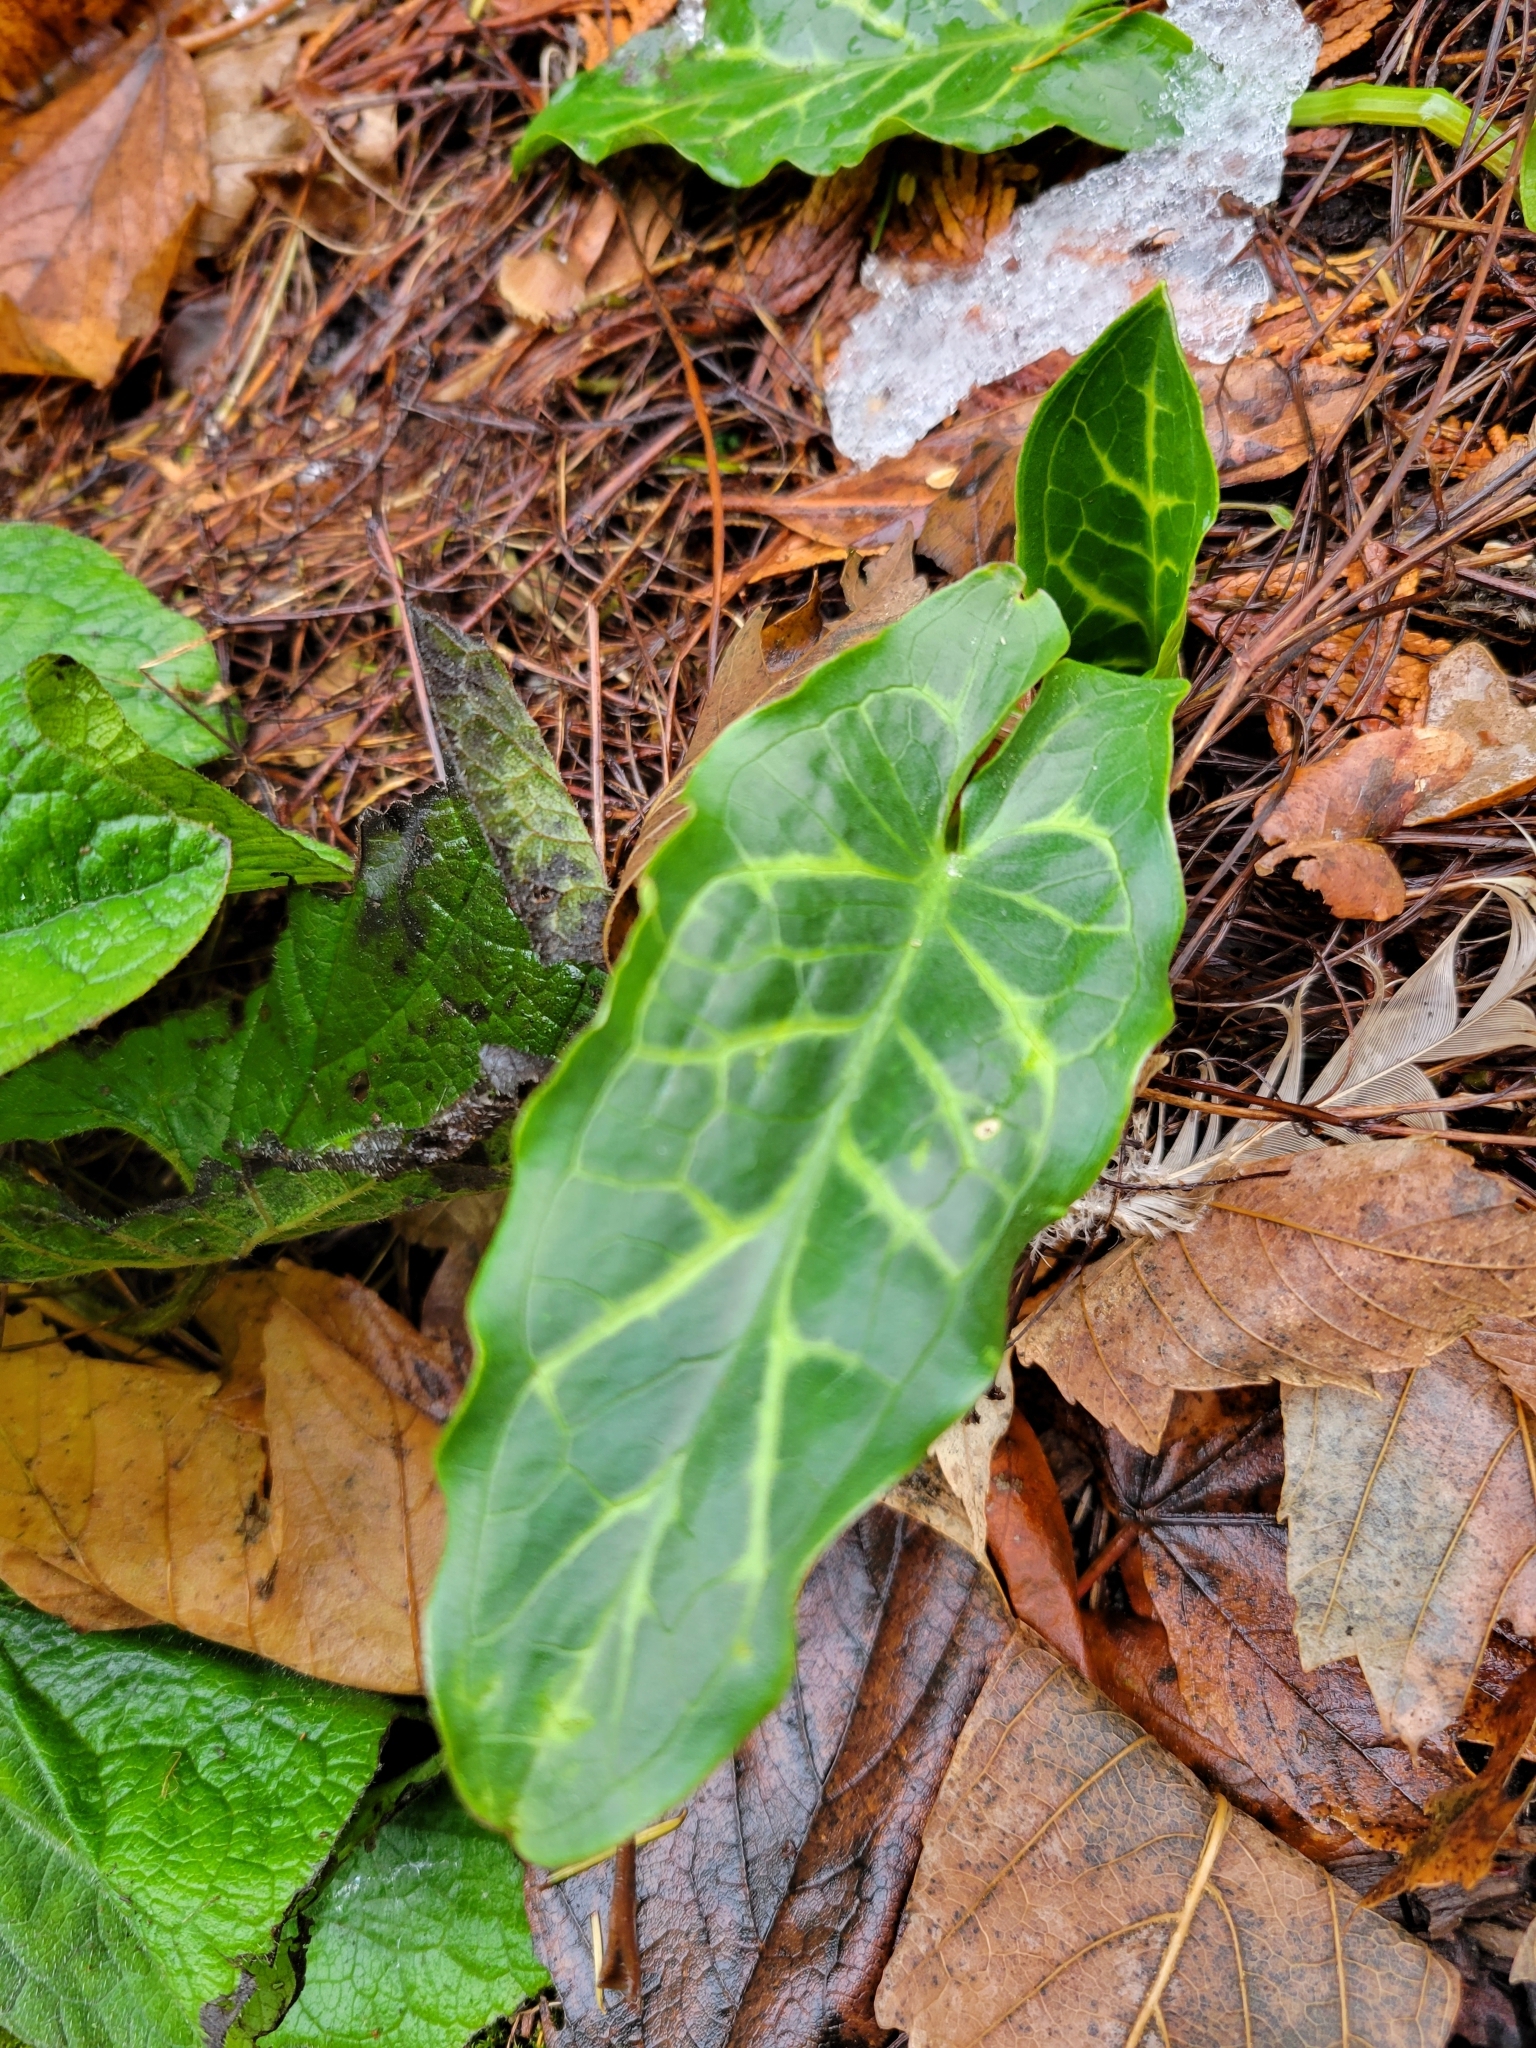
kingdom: Plantae
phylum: Tracheophyta
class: Liliopsida
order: Alismatales
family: Araceae
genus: Arum
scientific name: Arum italicum
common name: Italian lords-and-ladies
